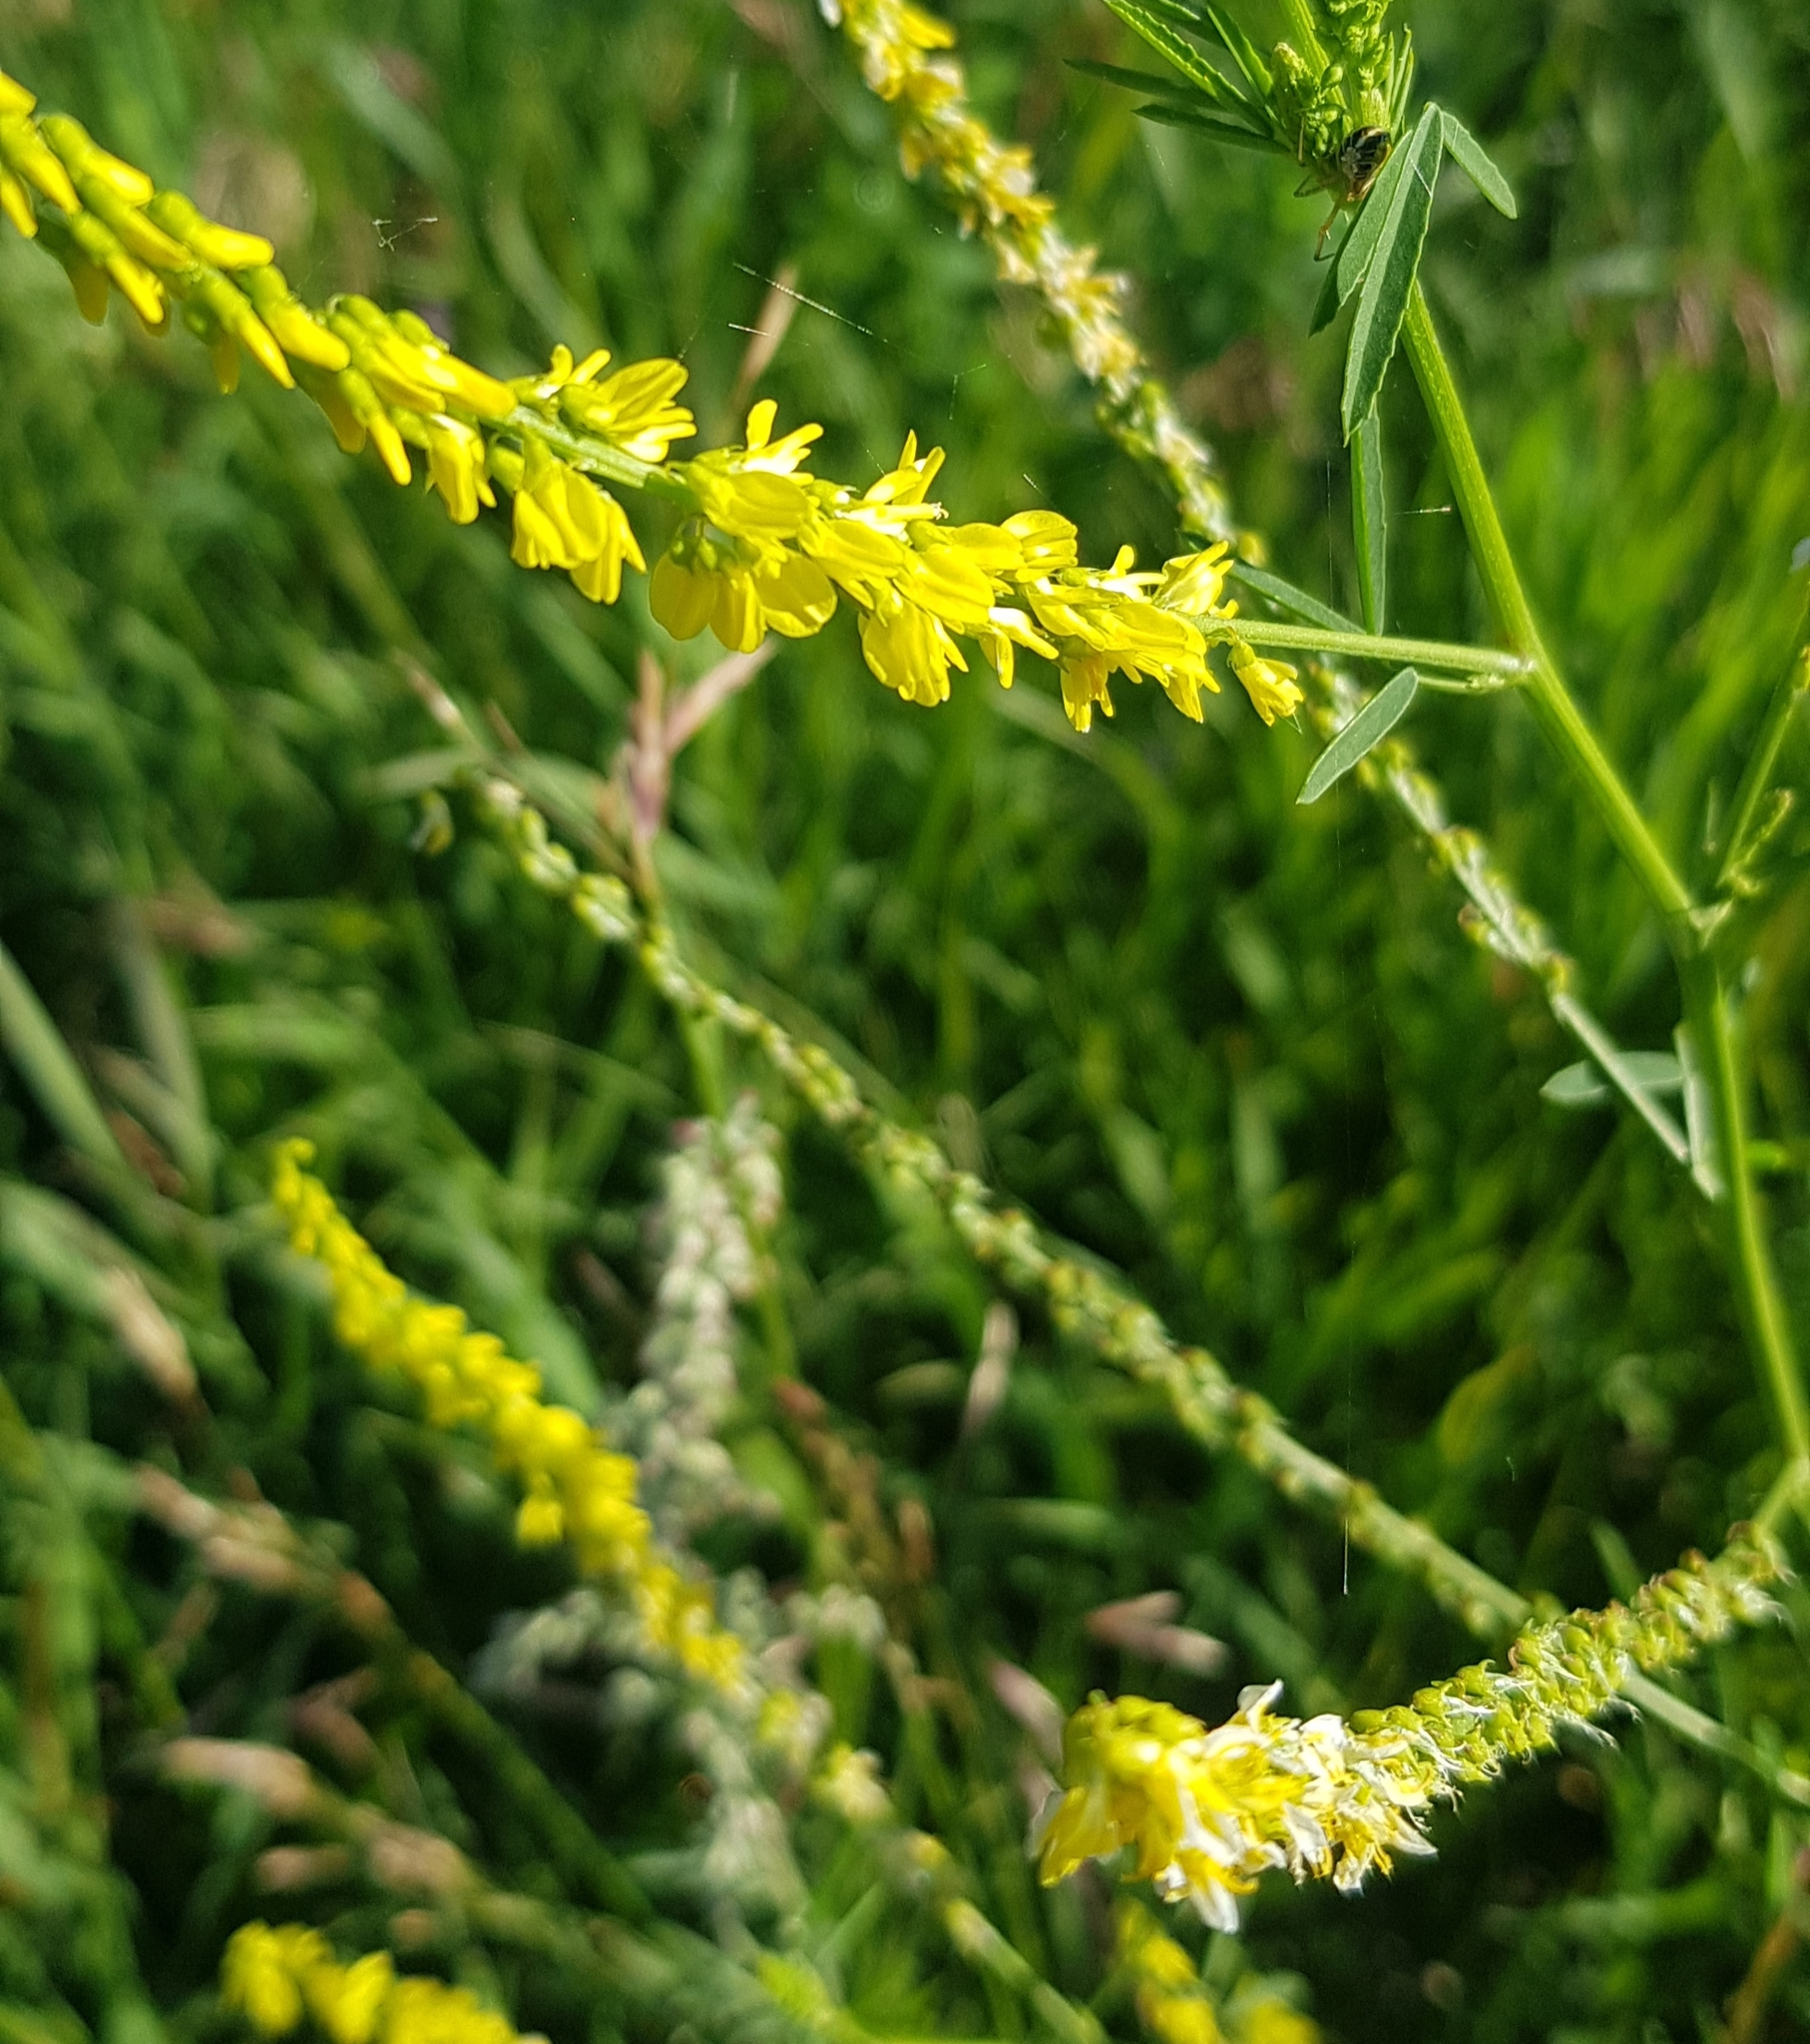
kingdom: Plantae
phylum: Tracheophyta
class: Magnoliopsida
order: Fabales
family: Fabaceae
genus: Melilotus
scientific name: Melilotus officinalis
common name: Sweetclover
